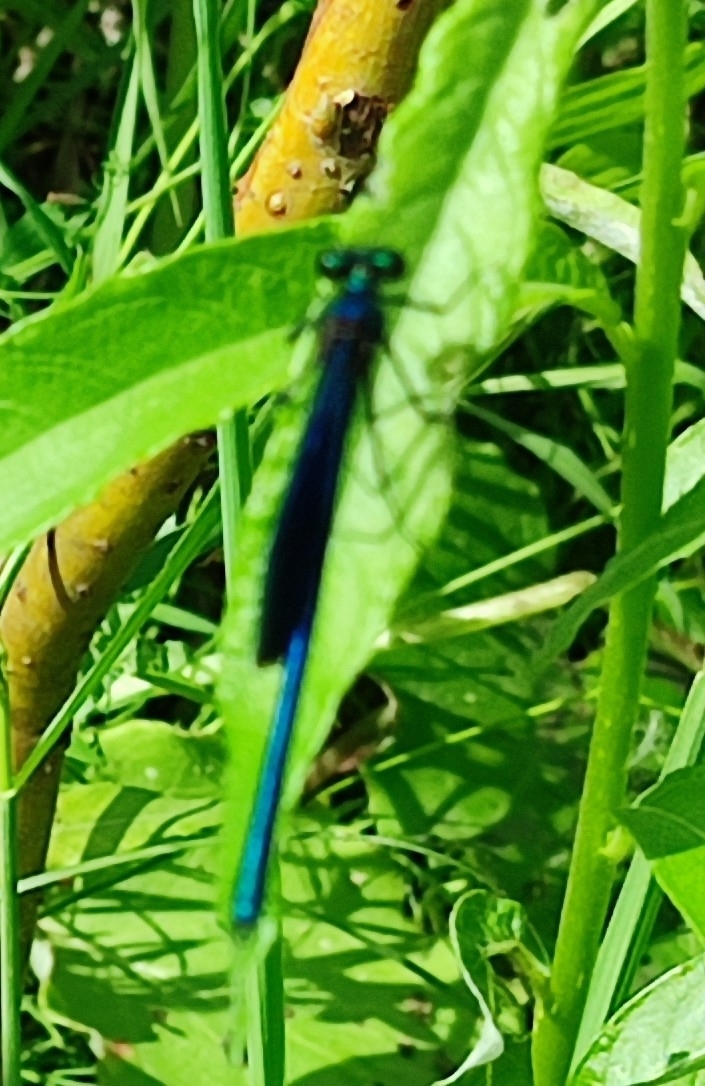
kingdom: Animalia
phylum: Arthropoda
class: Insecta
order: Odonata
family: Calopterygidae
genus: Calopteryx
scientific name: Calopteryx splendens
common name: Banded demoiselle
